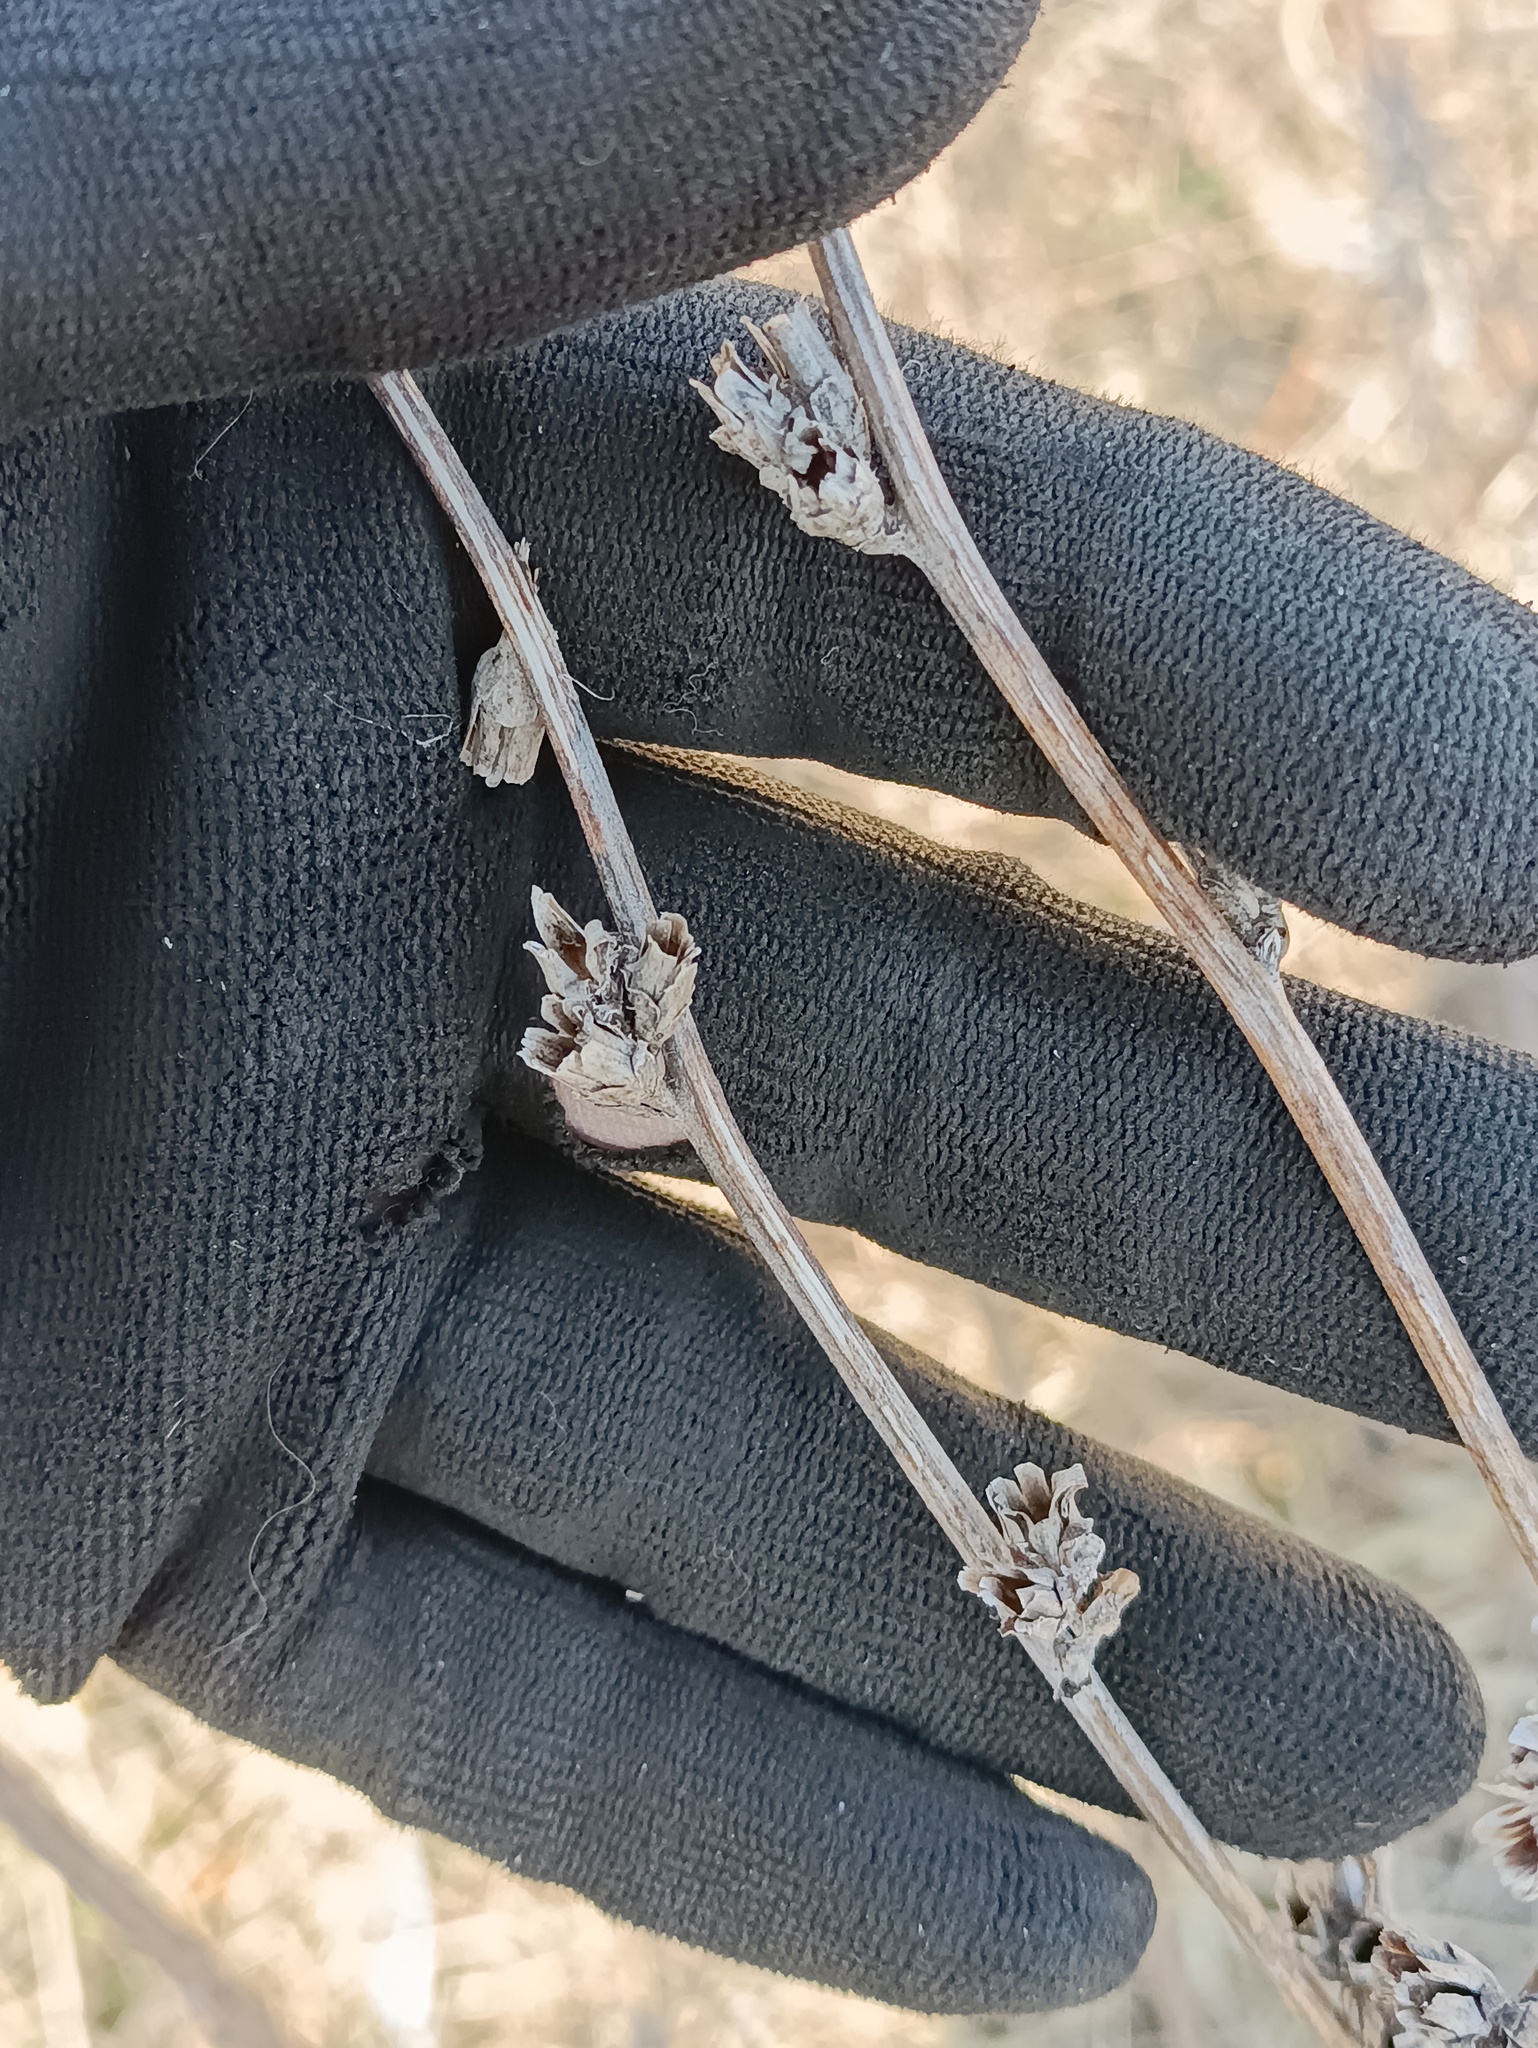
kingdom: Plantae
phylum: Tracheophyta
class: Magnoliopsida
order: Asterales
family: Asteraceae
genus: Cichorium
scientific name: Cichorium intybus
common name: Chicory
